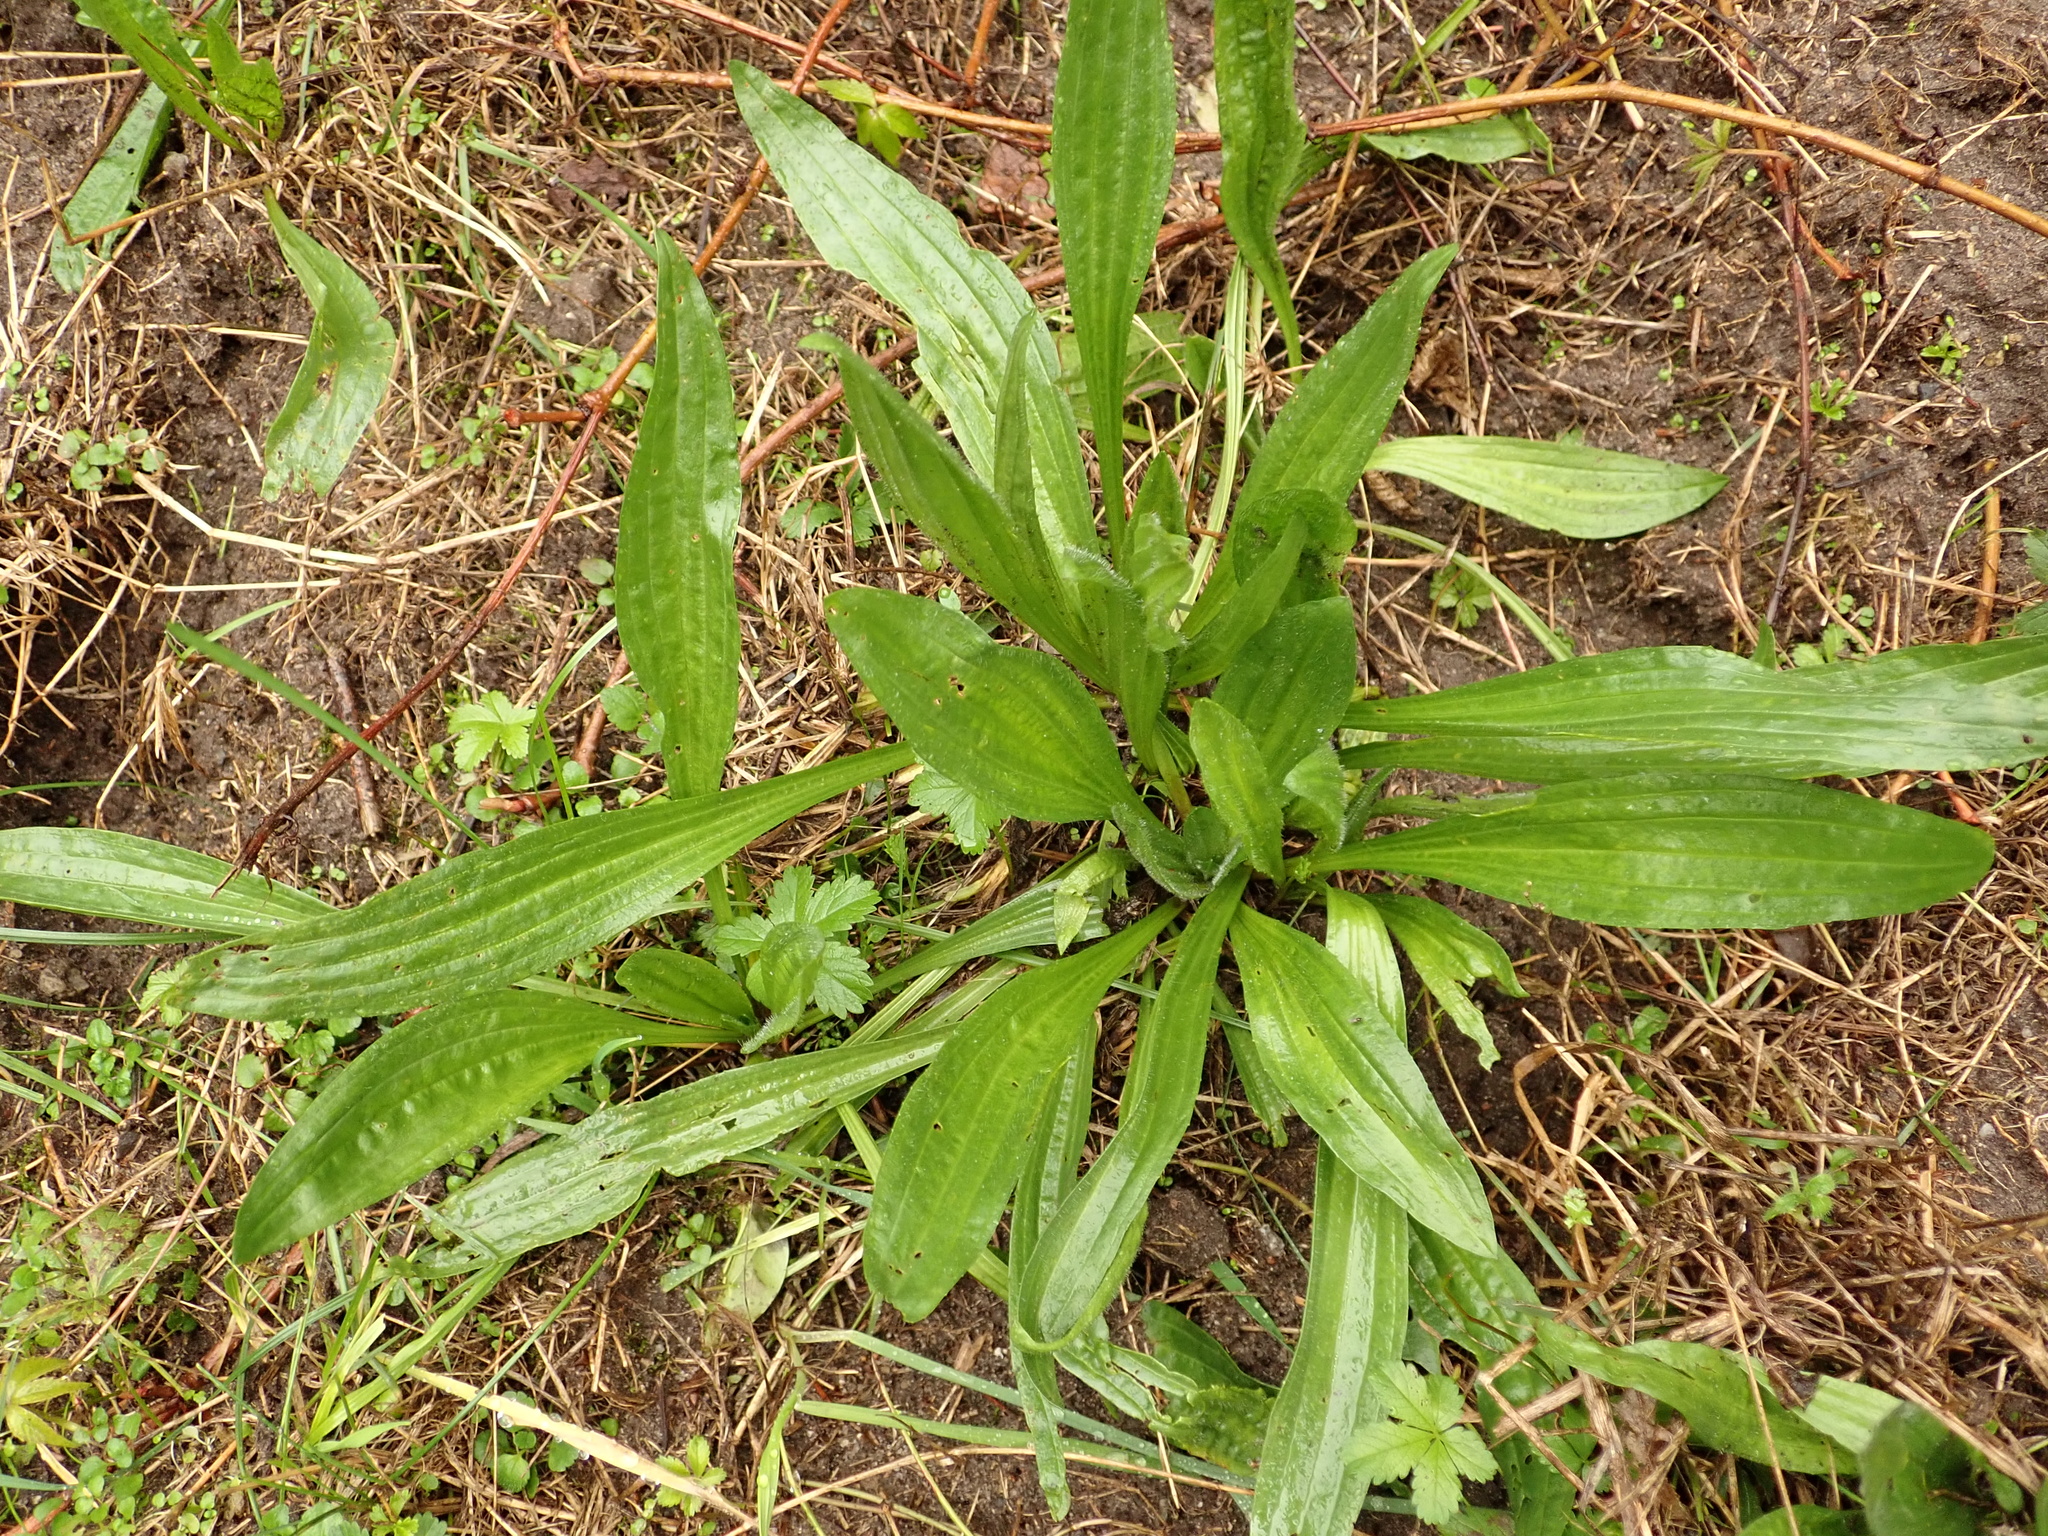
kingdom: Plantae
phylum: Tracheophyta
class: Magnoliopsida
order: Lamiales
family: Plantaginaceae
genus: Plantago
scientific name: Plantago lanceolata
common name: Ribwort plantain
